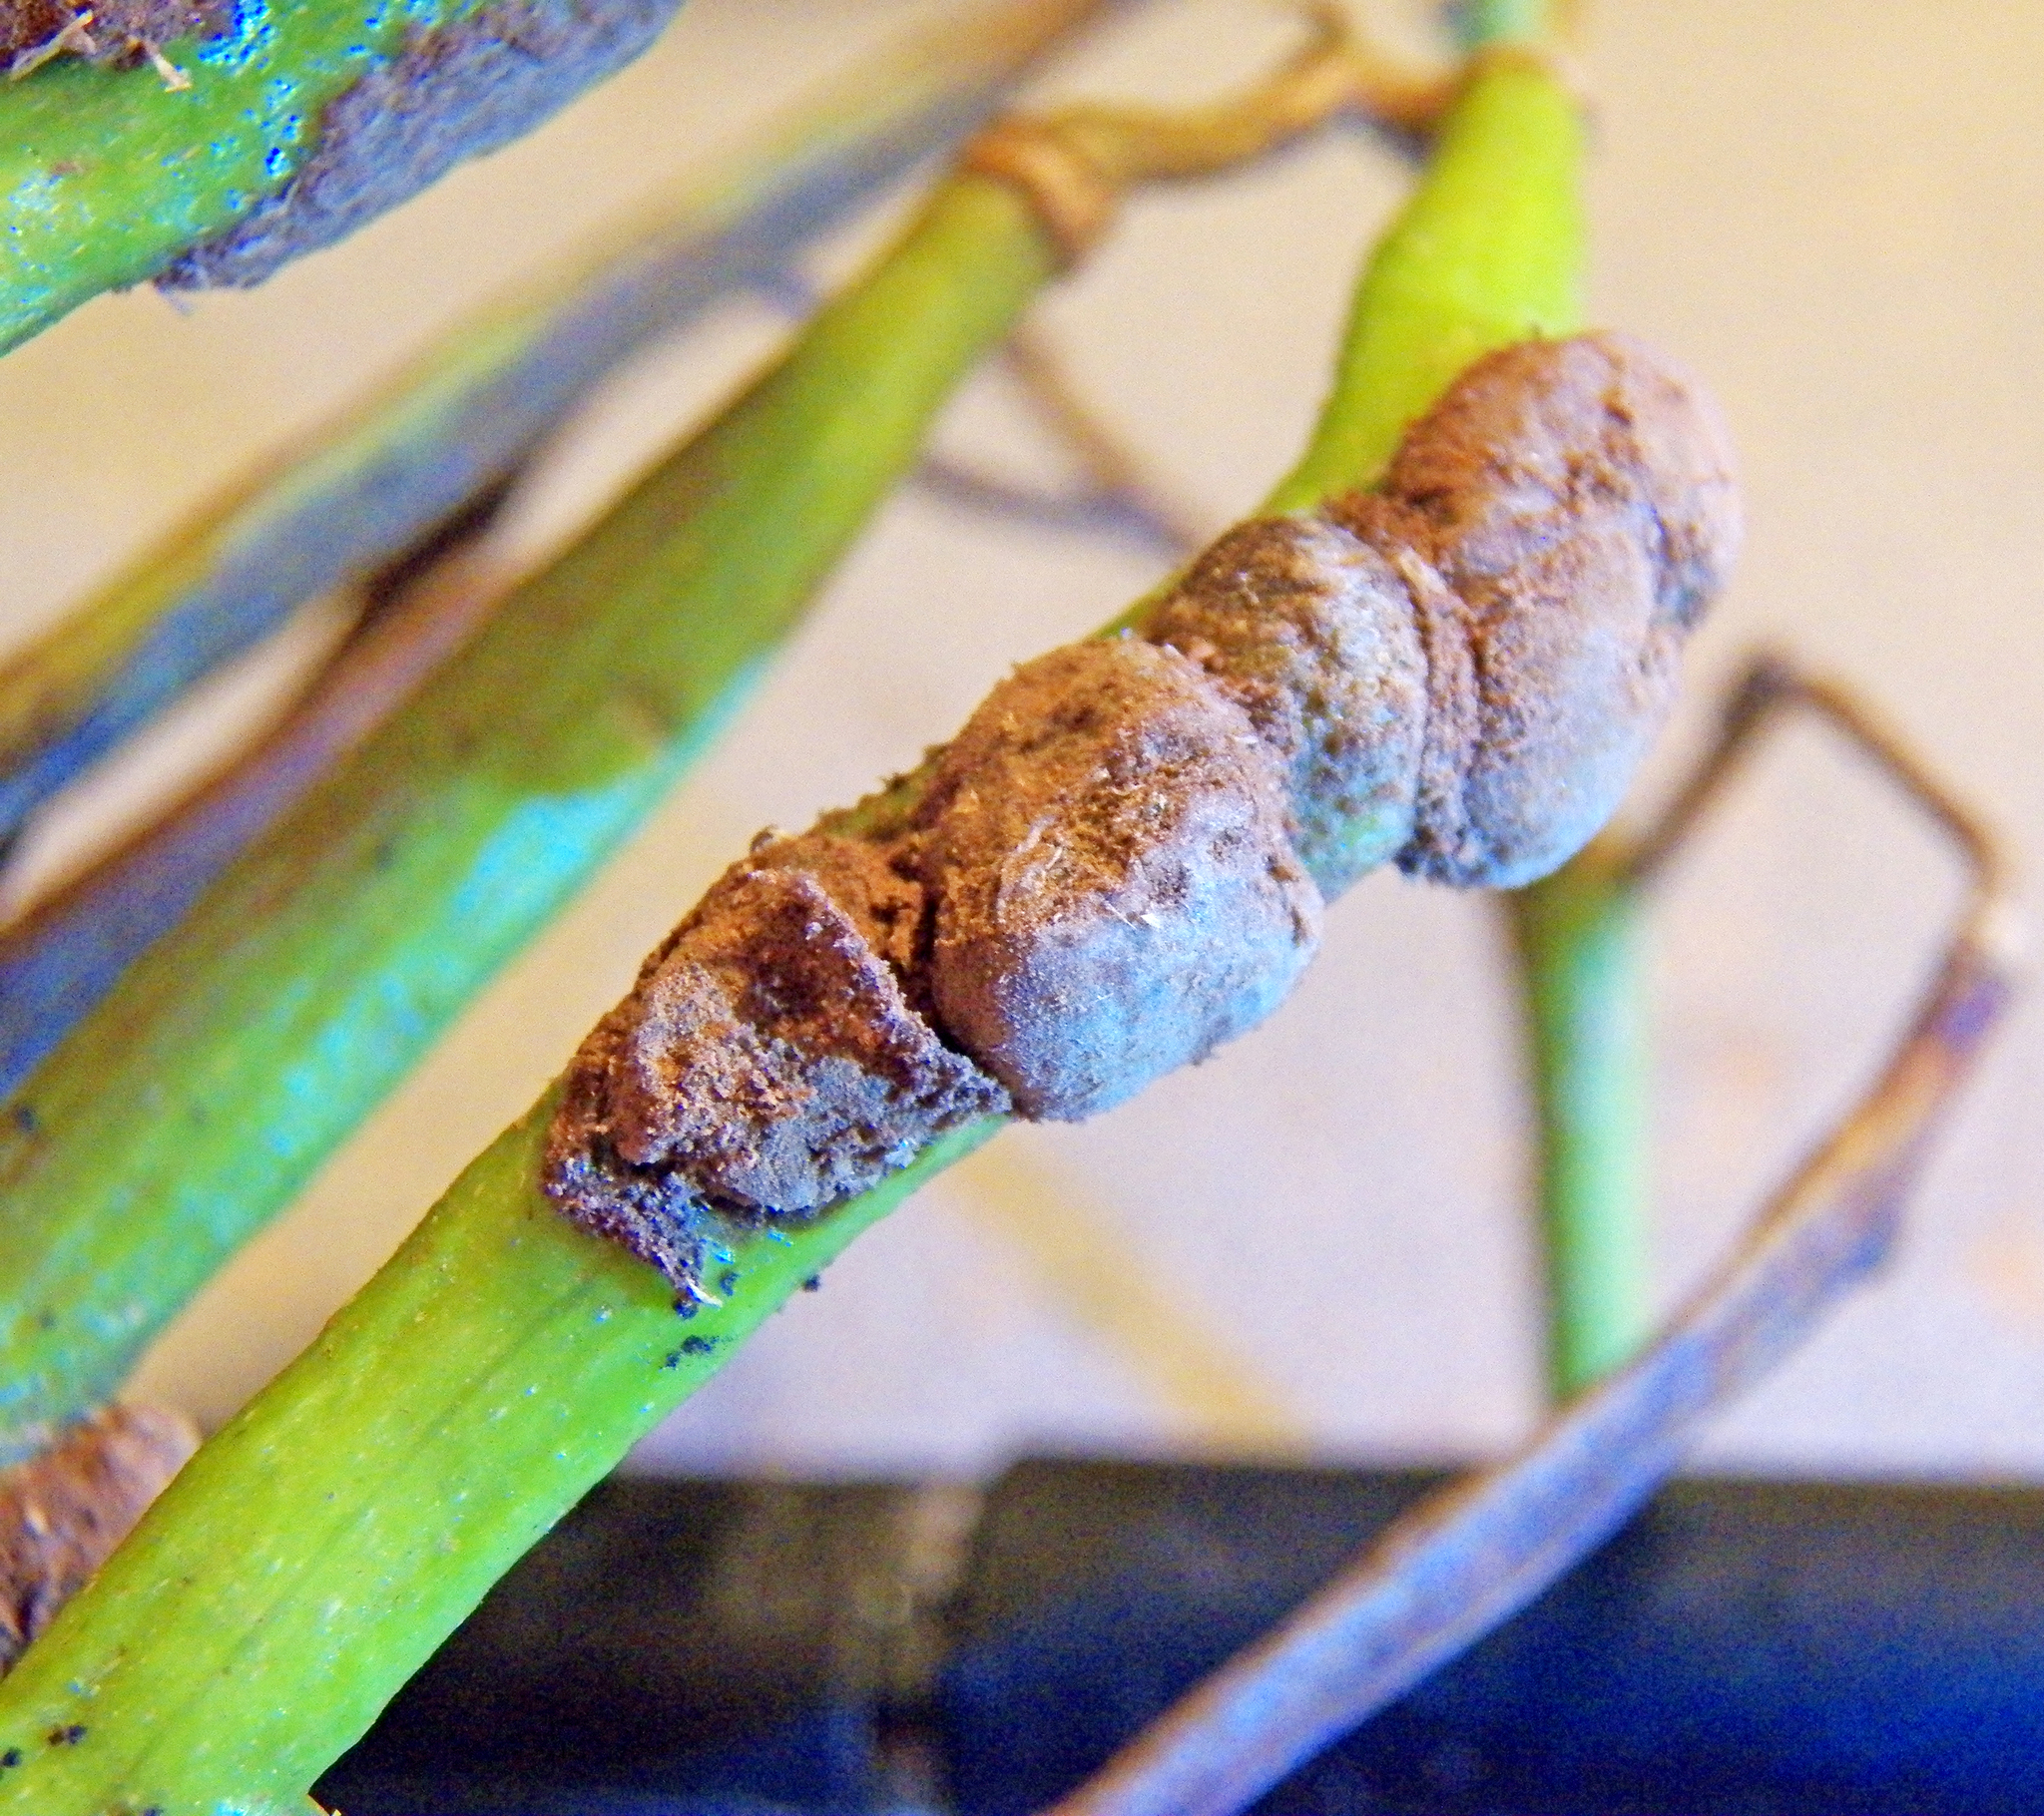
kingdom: Fungi
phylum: Basidiomycota
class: Pucciniomycetes
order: Pucciniales
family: Uropyxidaceae
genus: Prospodium
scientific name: Prospodium transformans
